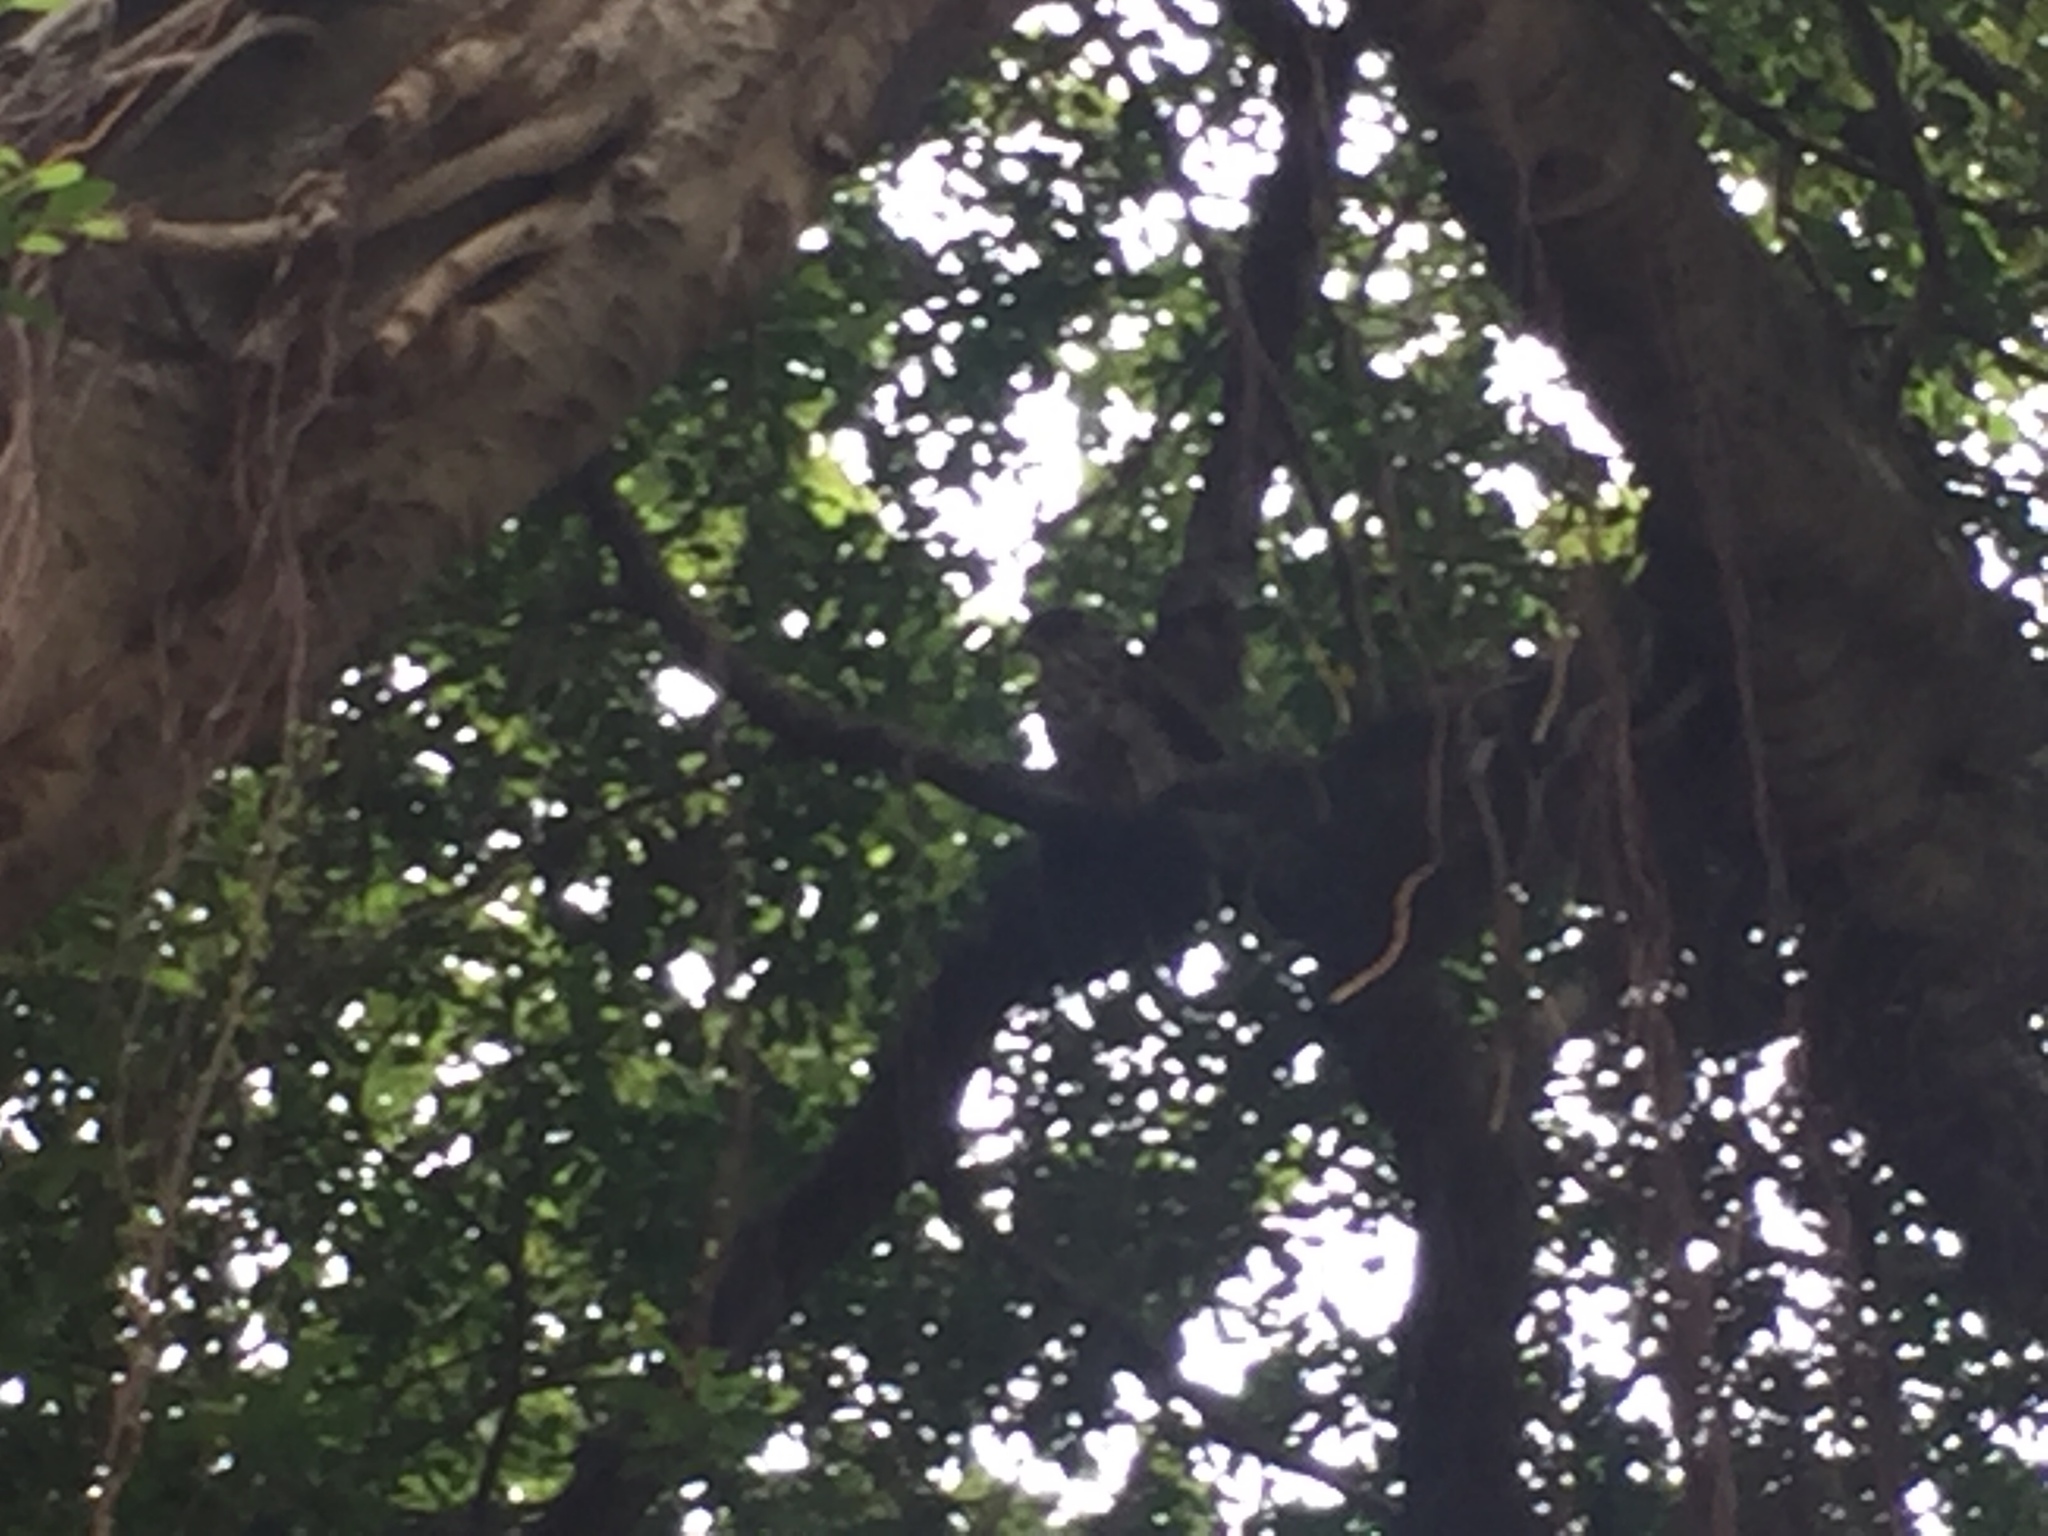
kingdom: Animalia
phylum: Chordata
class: Aves
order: Accipitriformes
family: Accipitridae
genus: Accipiter
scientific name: Accipiter trivirgatus
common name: Crested goshawk
